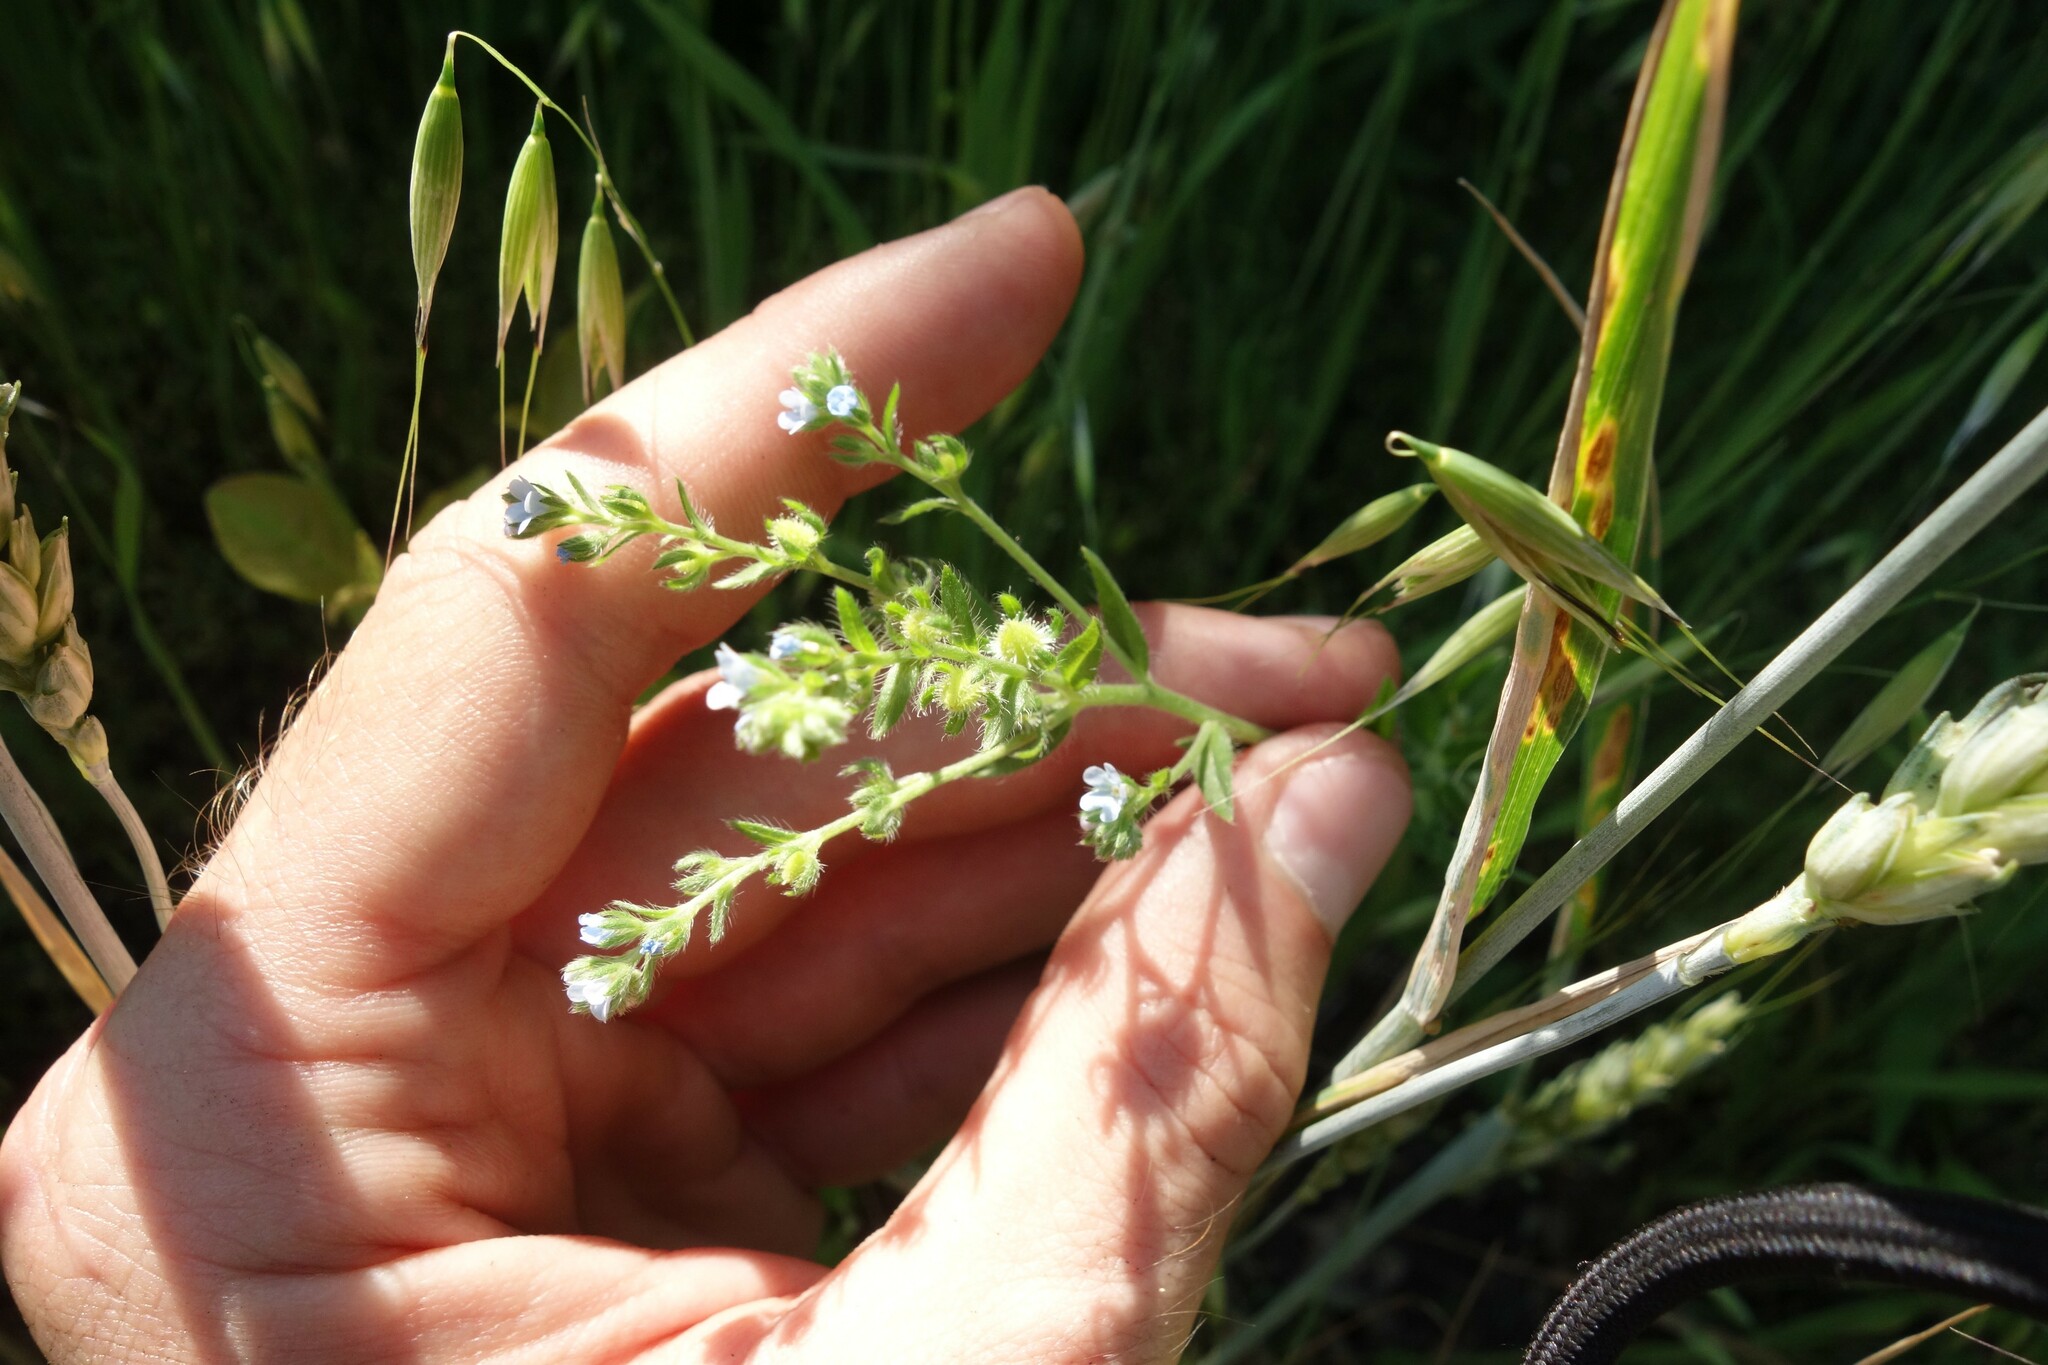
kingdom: Plantae
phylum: Tracheophyta
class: Magnoliopsida
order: Boraginales
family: Boraginaceae
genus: Lappula
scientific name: Lappula squarrosa
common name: European stickseed
